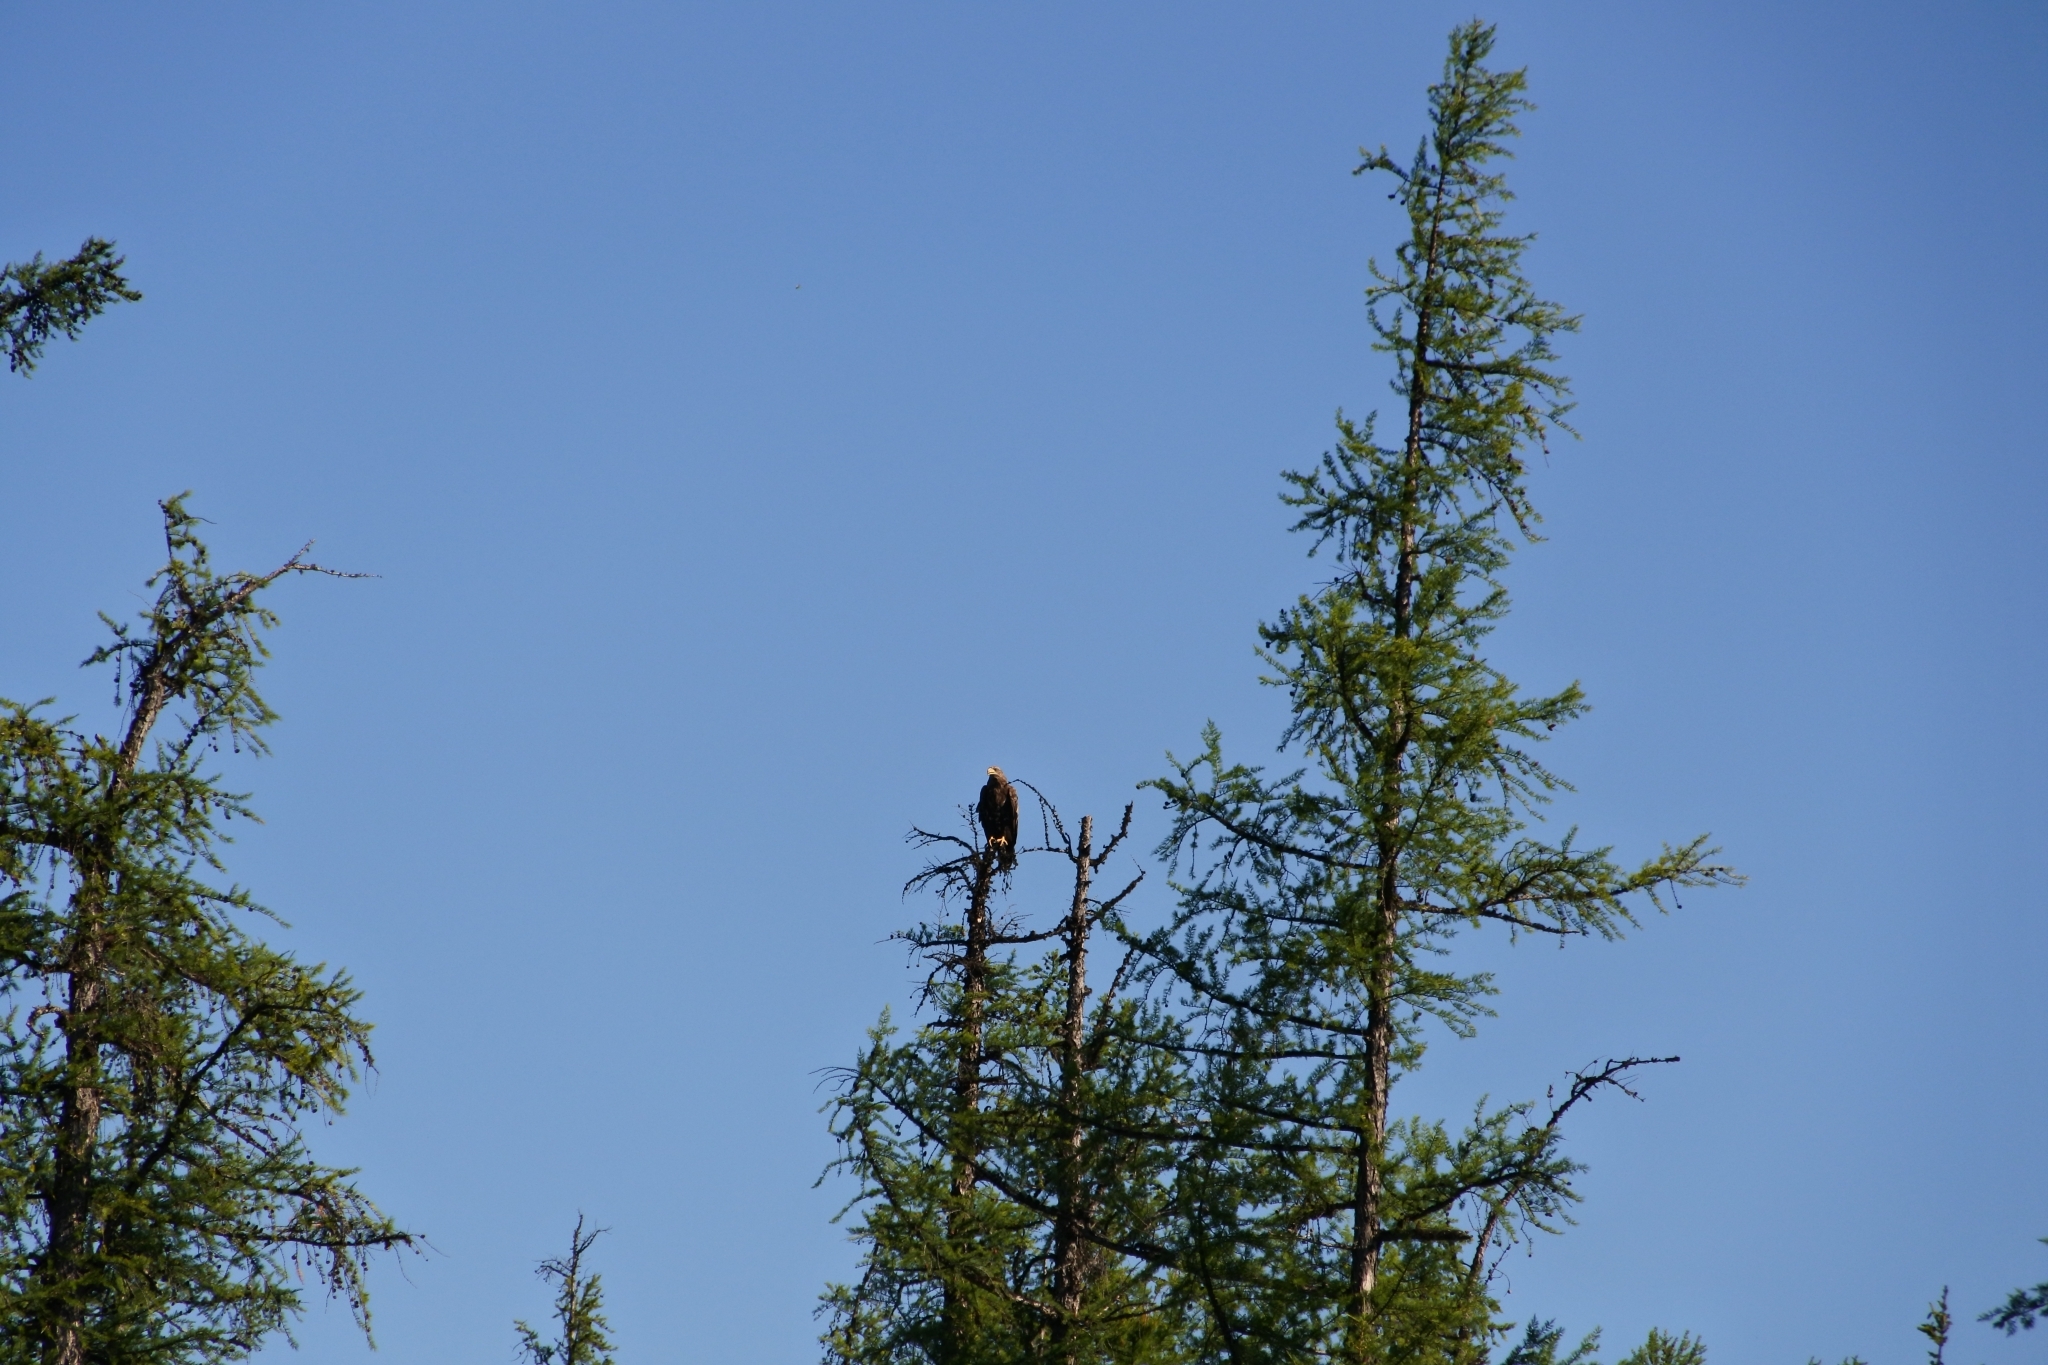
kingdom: Animalia
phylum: Chordata
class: Aves
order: Accipitriformes
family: Accipitridae
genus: Haliaeetus
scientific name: Haliaeetus albicilla
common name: White-tailed eagle
